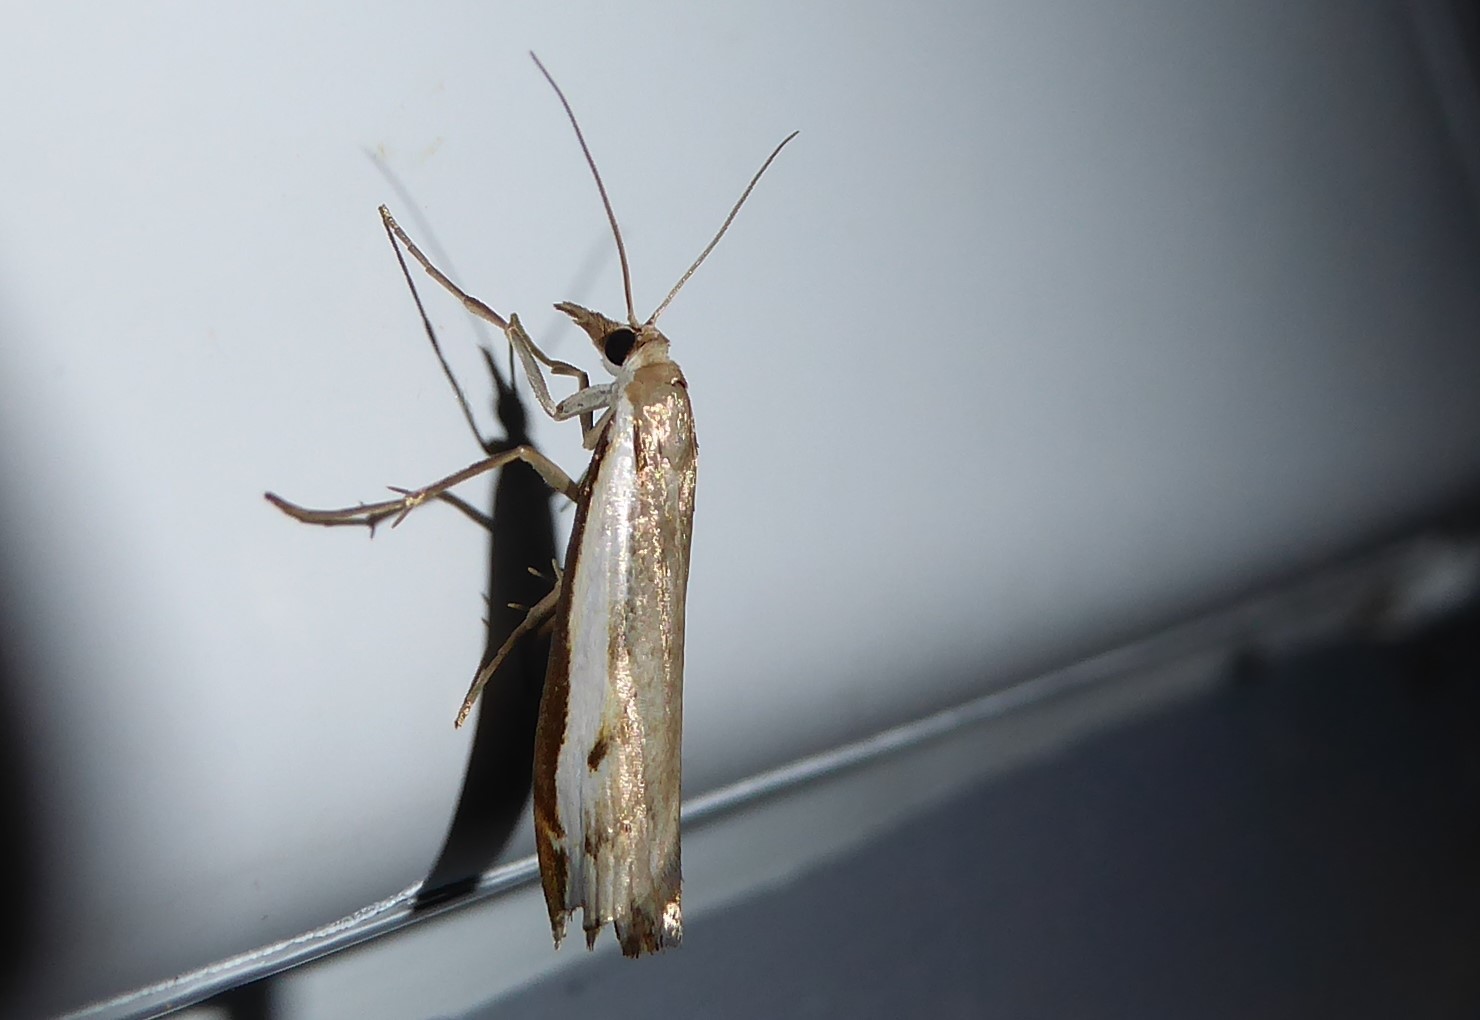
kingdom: Animalia
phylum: Arthropoda
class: Insecta
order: Lepidoptera
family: Crambidae
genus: Orocrambus
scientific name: Orocrambus flexuosellus
